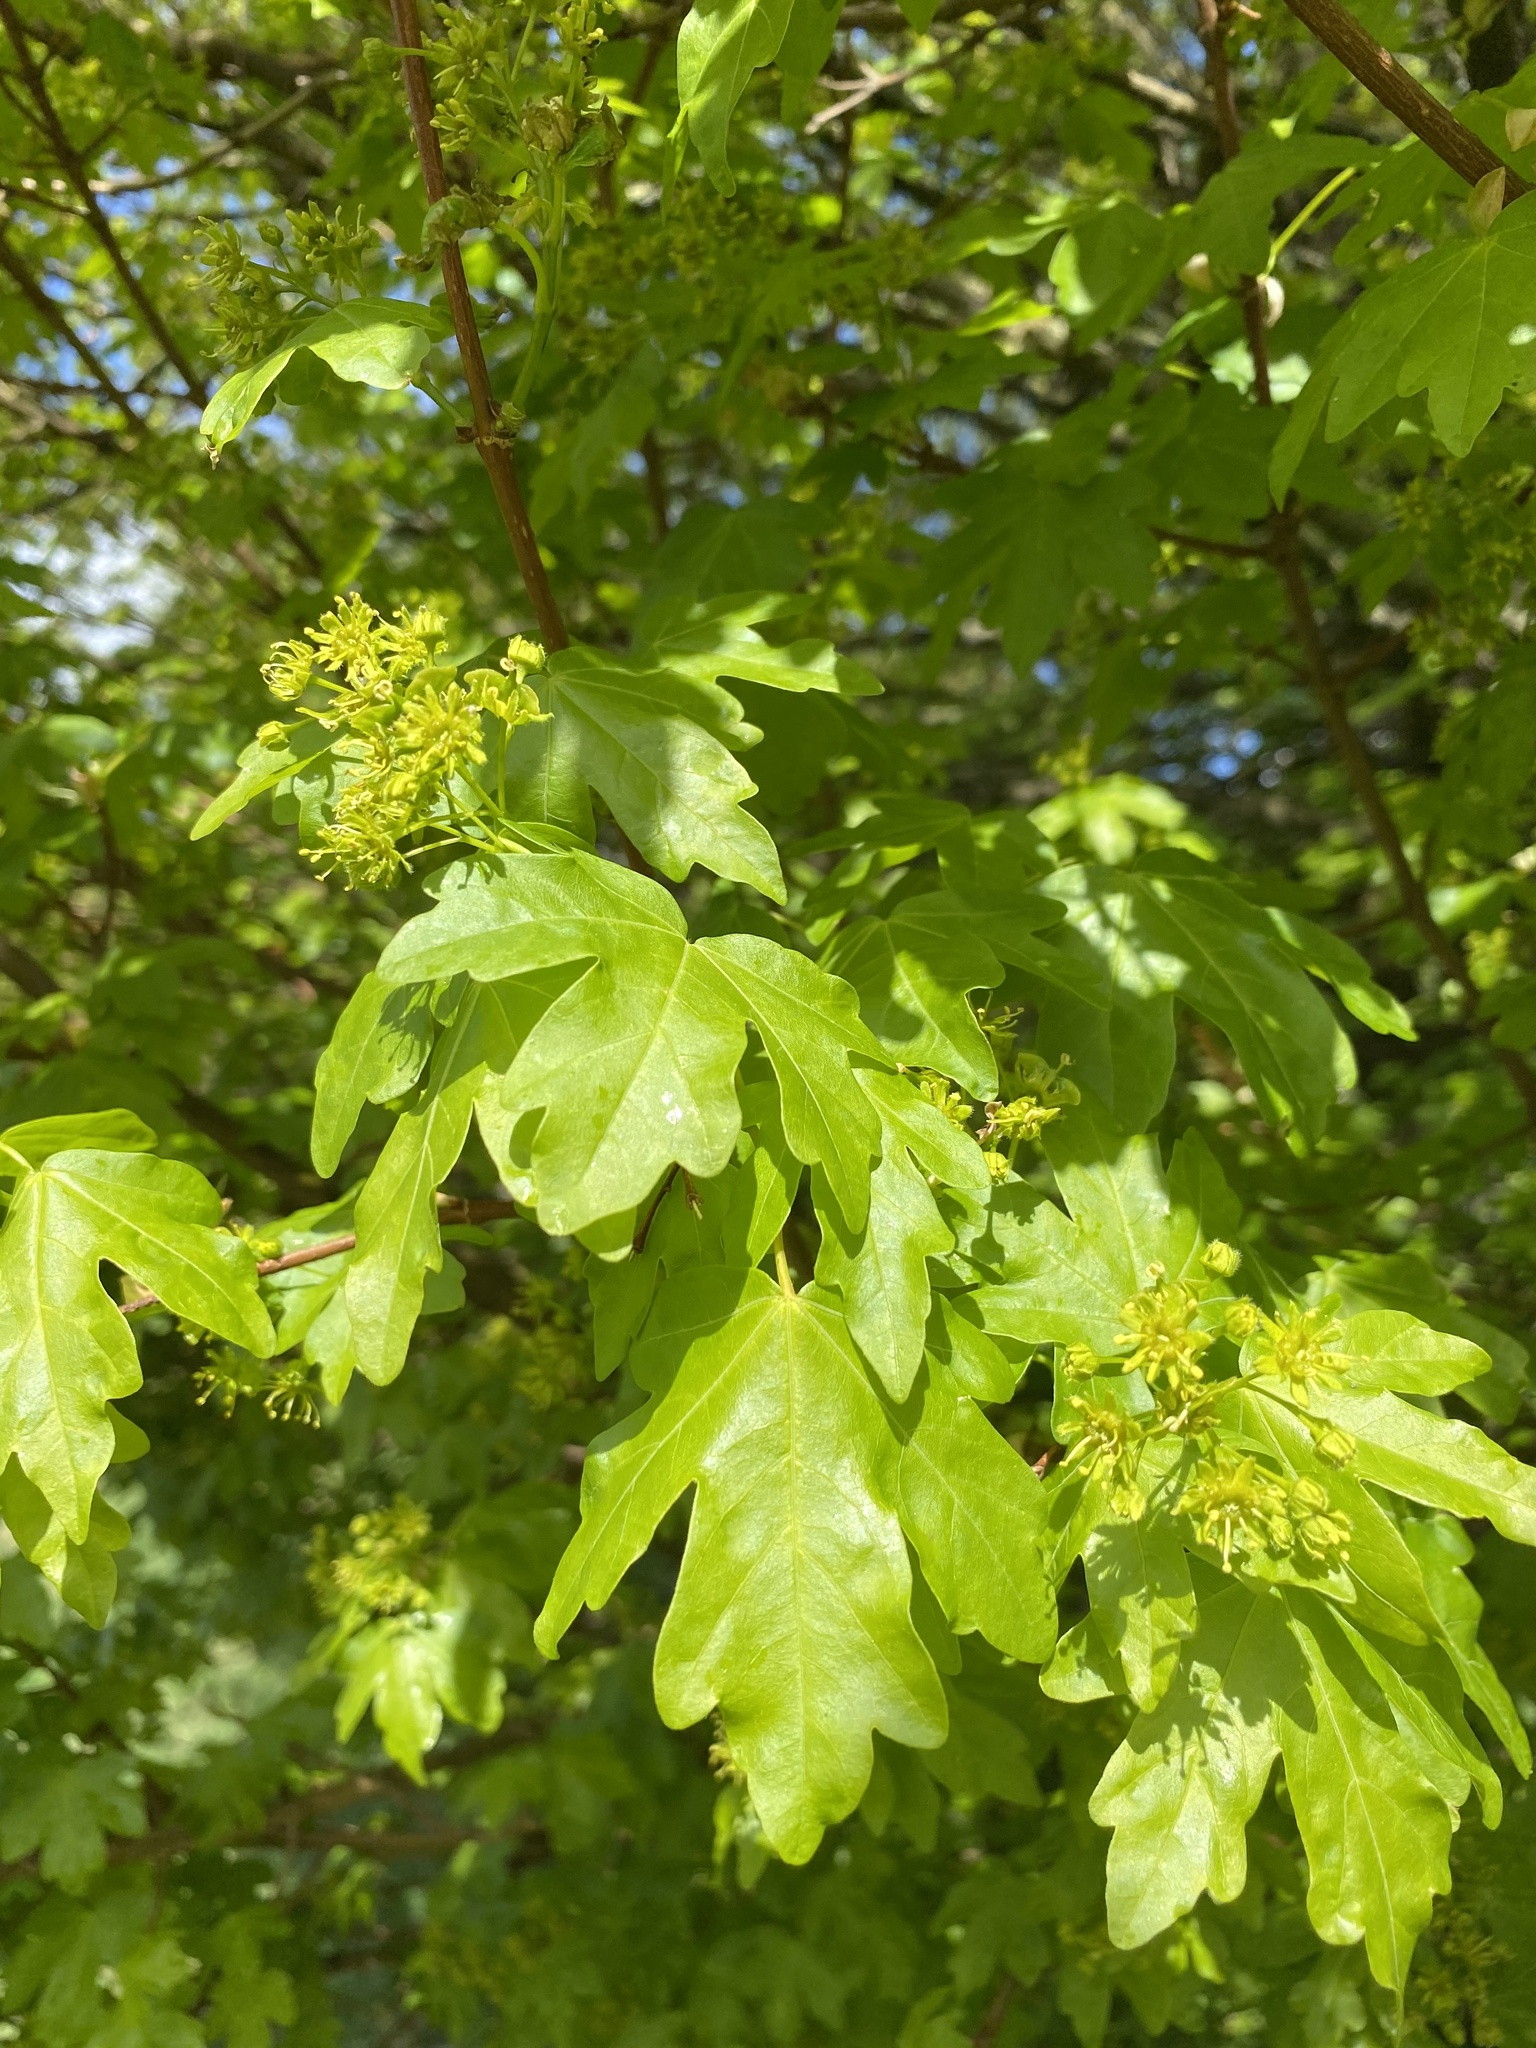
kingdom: Plantae
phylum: Tracheophyta
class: Magnoliopsida
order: Sapindales
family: Sapindaceae
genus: Acer
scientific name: Acer campestre
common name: Field maple
